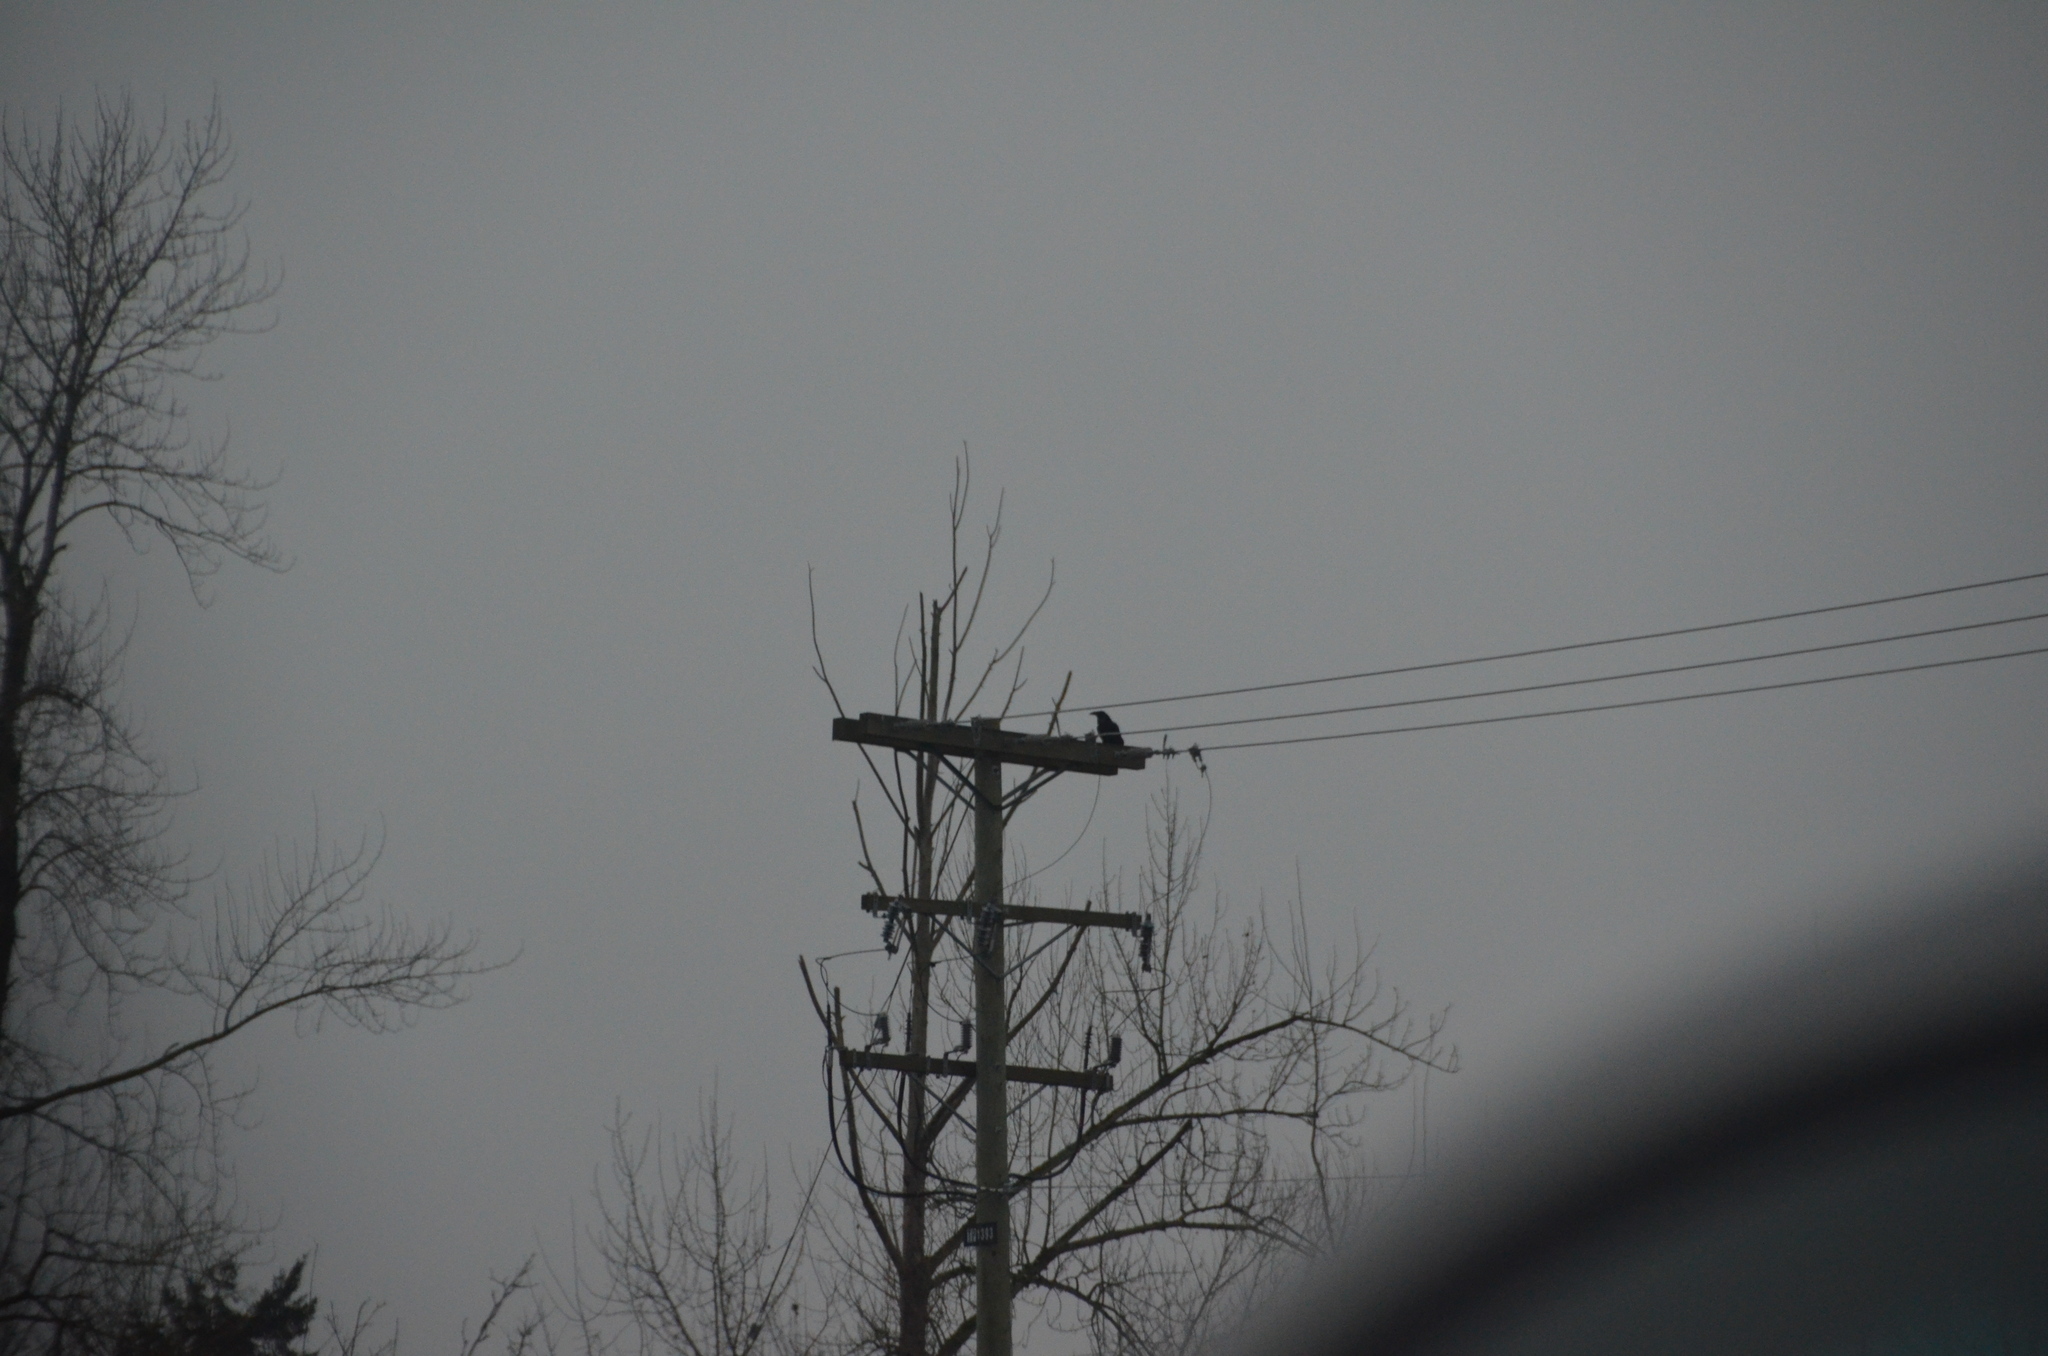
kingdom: Animalia
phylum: Chordata
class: Aves
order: Passeriformes
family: Corvidae
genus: Corvus
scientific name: Corvus corax
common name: Common raven
